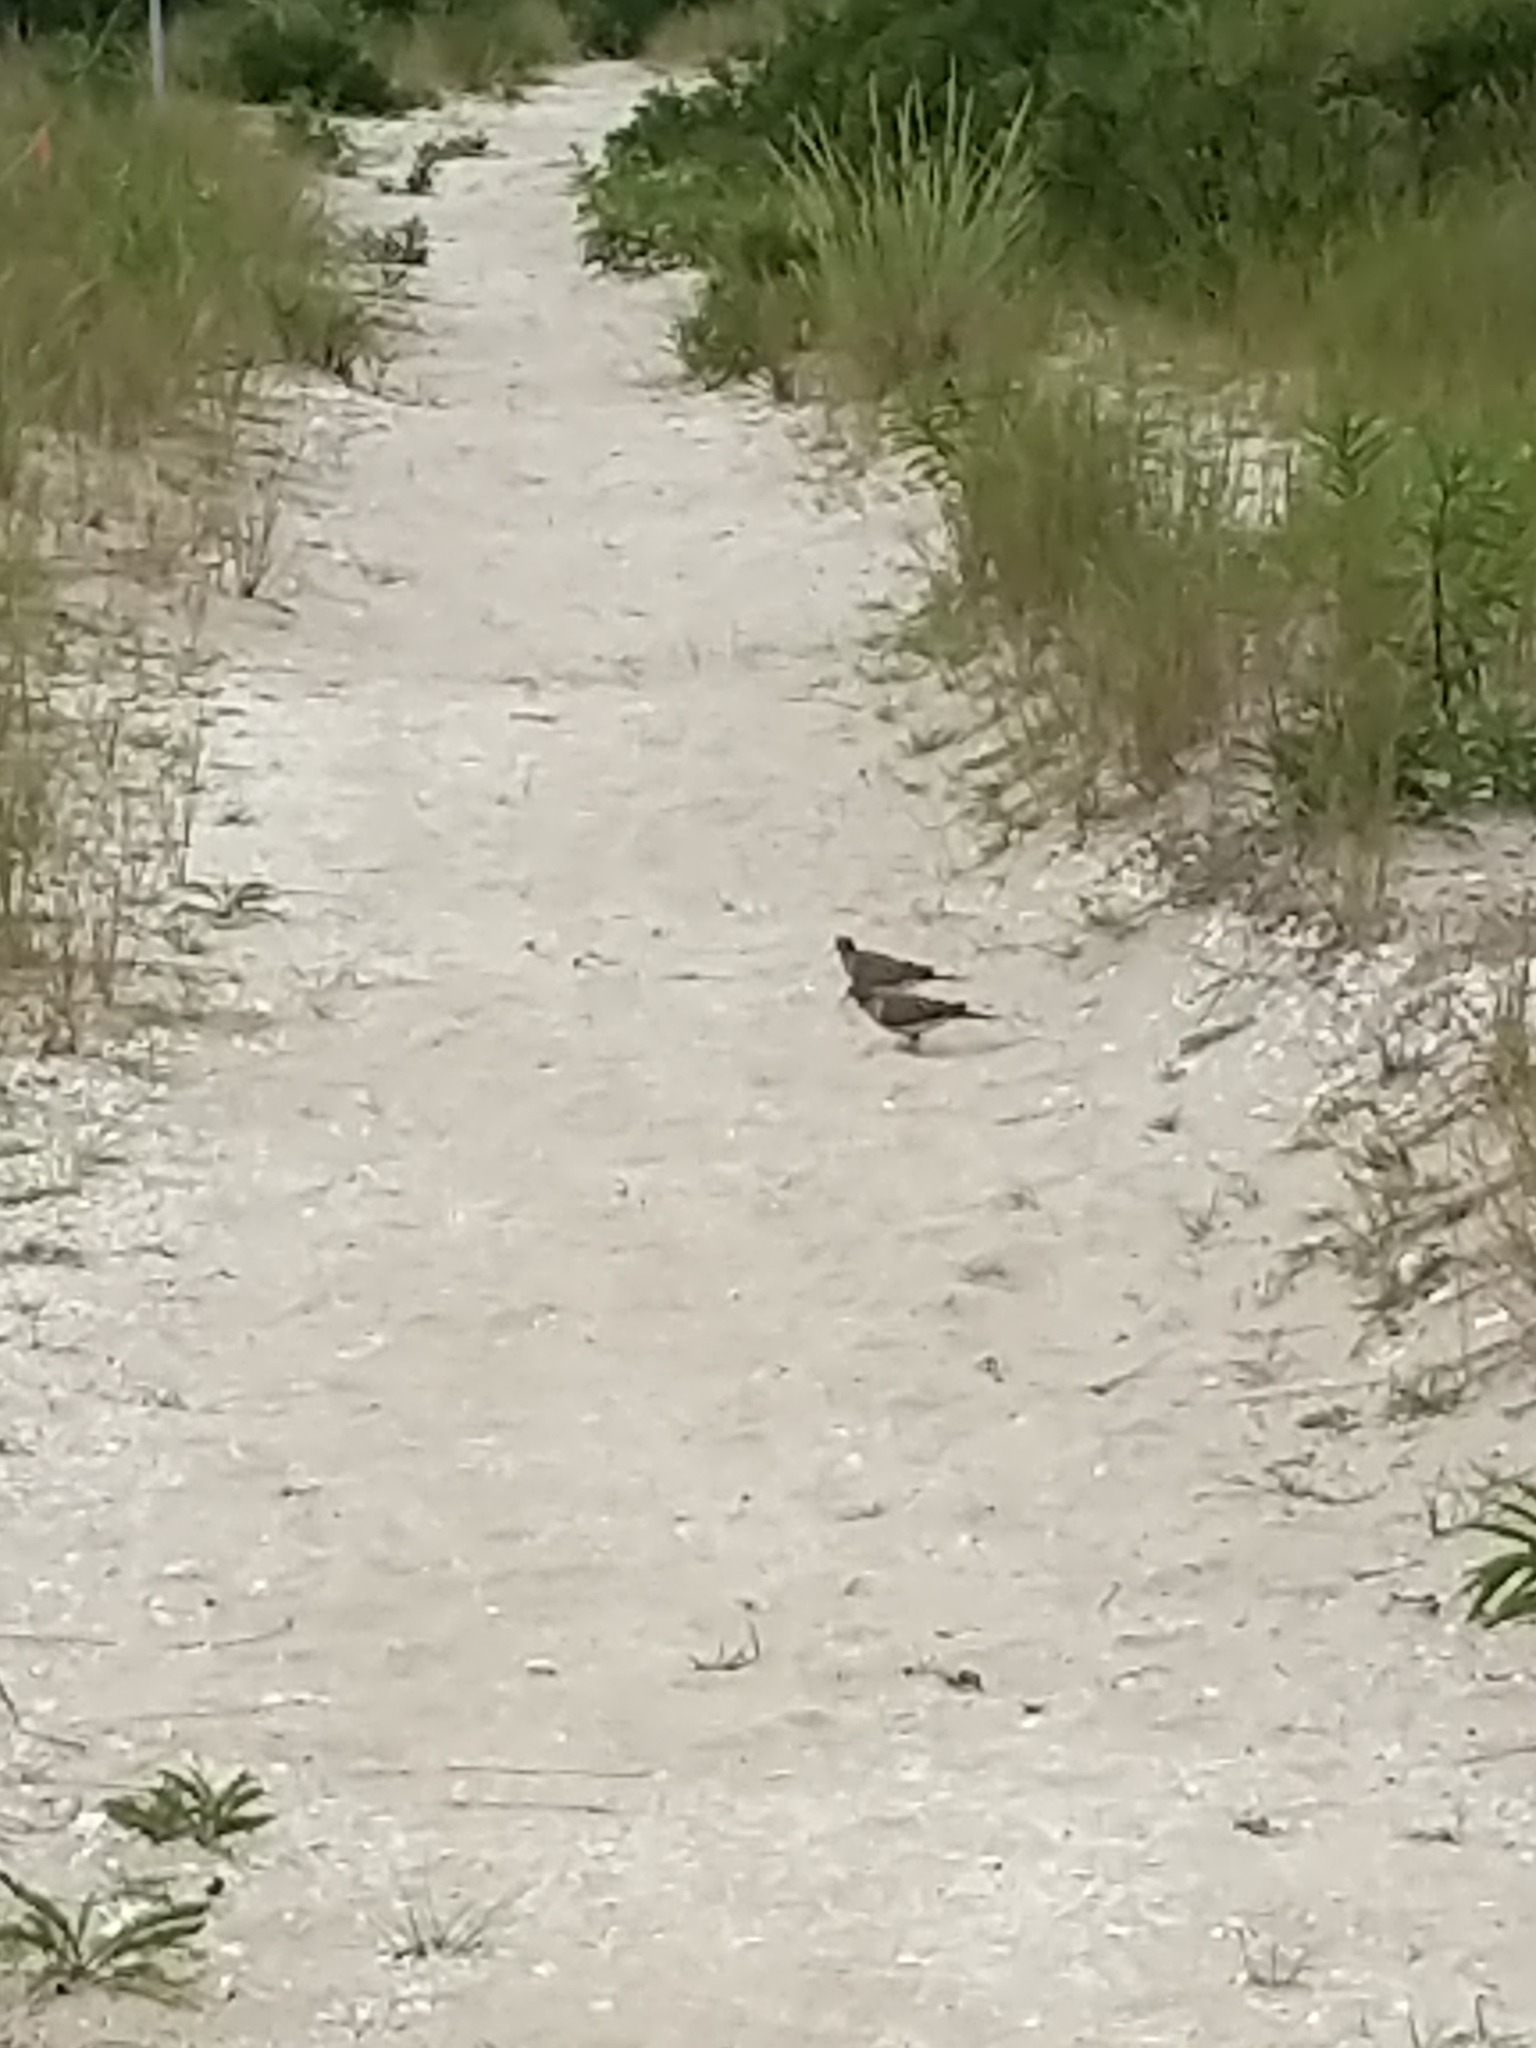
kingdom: Animalia
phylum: Chordata
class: Aves
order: Columbiformes
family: Columbidae
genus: Zenaida
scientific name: Zenaida macroura
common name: Mourning dove
